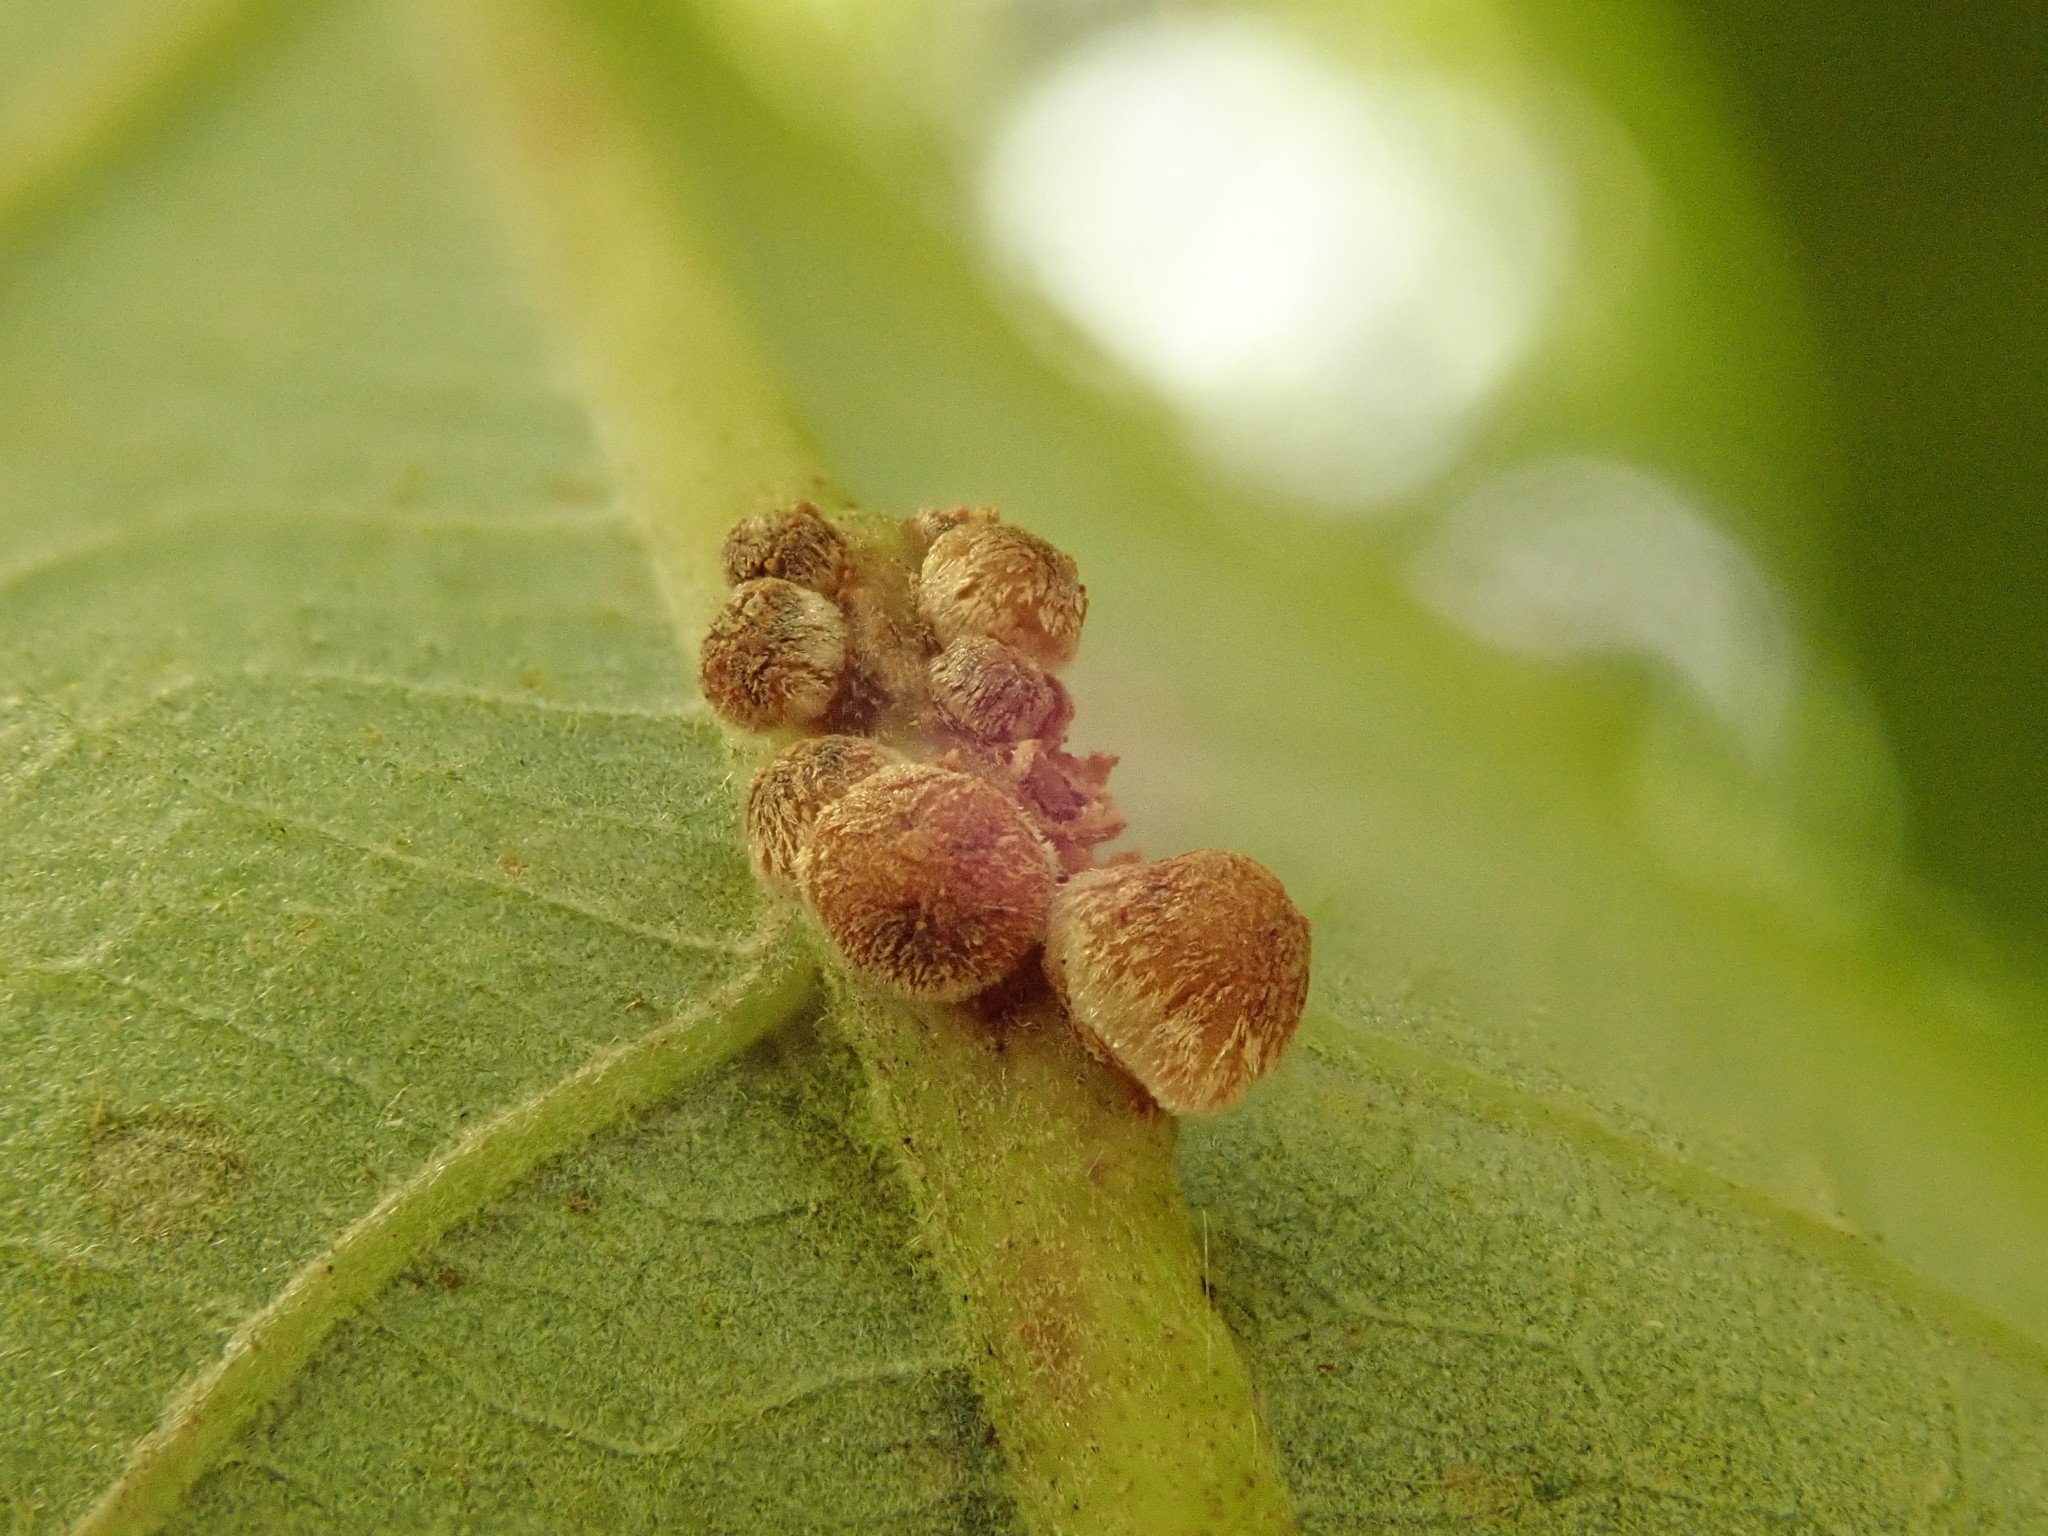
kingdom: Animalia
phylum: Arthropoda
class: Insecta
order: Hymenoptera
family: Cynipidae
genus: Andricus
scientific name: Andricus
